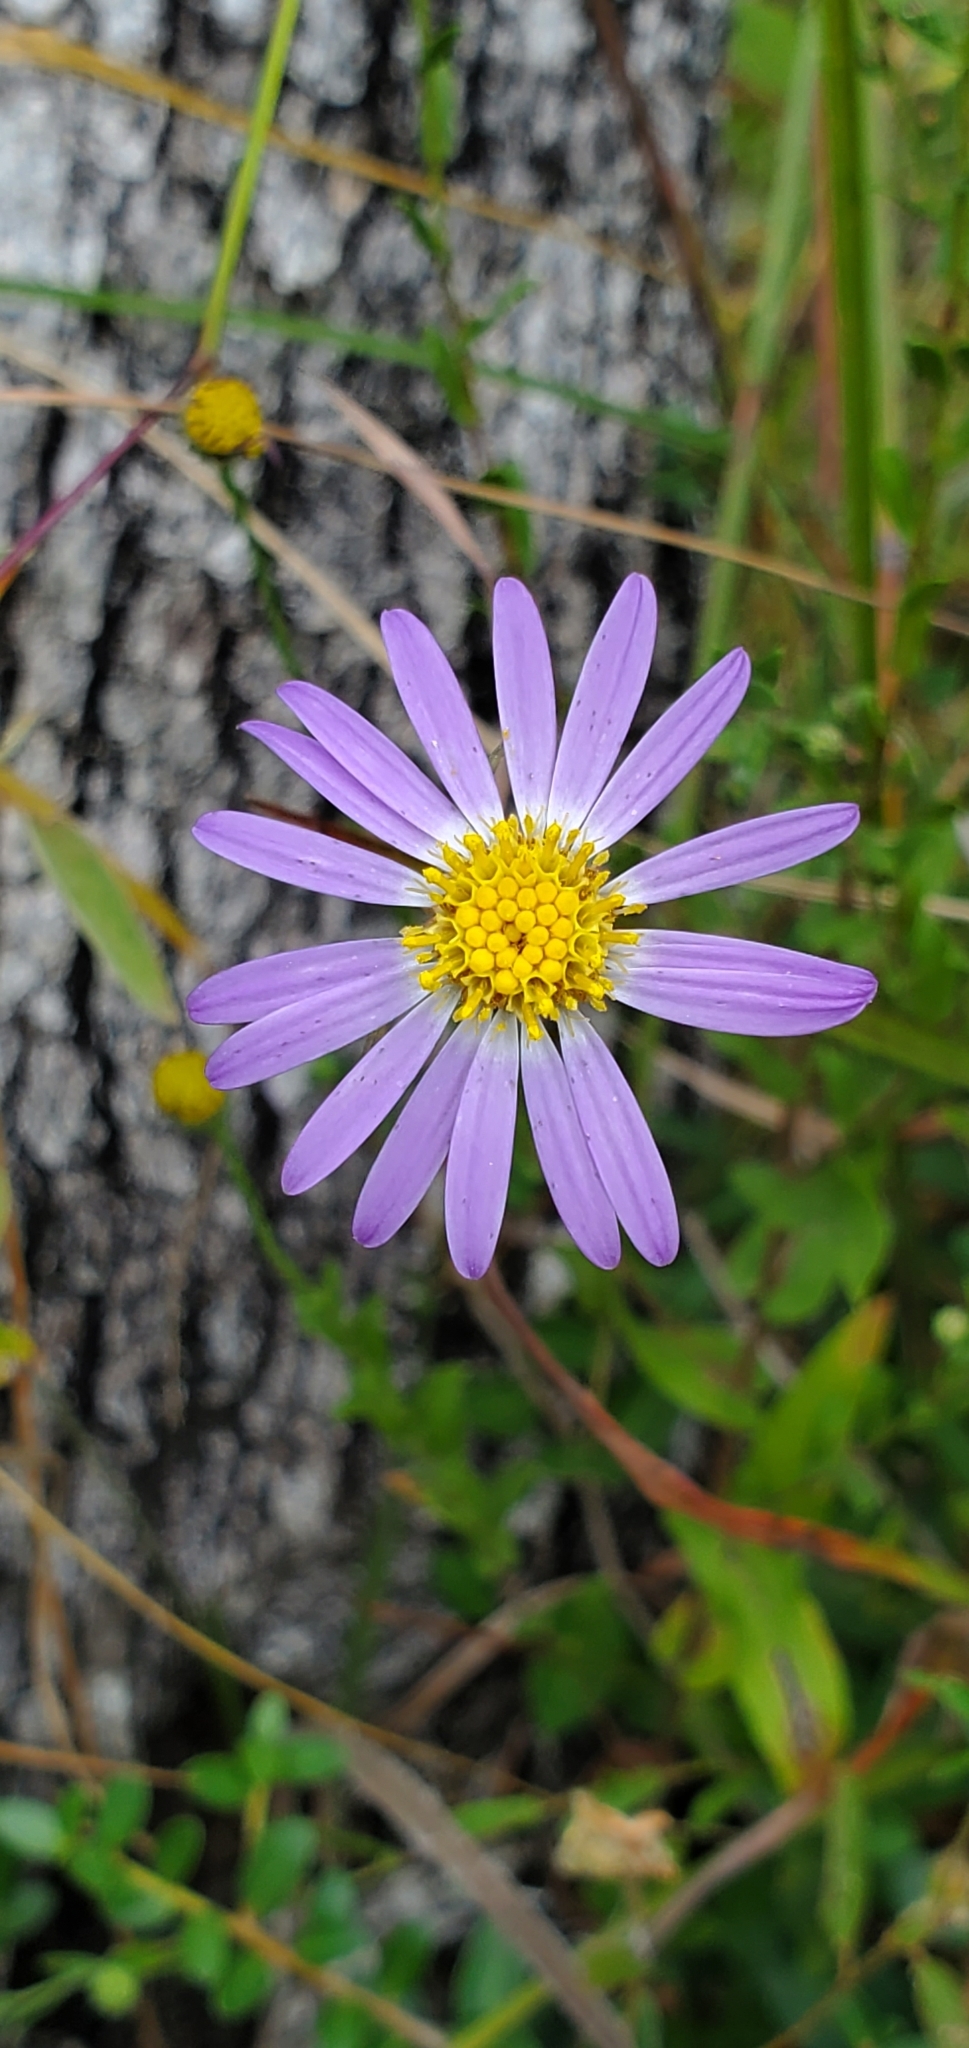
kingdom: Plantae
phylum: Tracheophyta
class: Magnoliopsida
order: Asterales
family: Asteraceae
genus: Symphyotrichum
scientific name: Symphyotrichum patens
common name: Late purple aster
